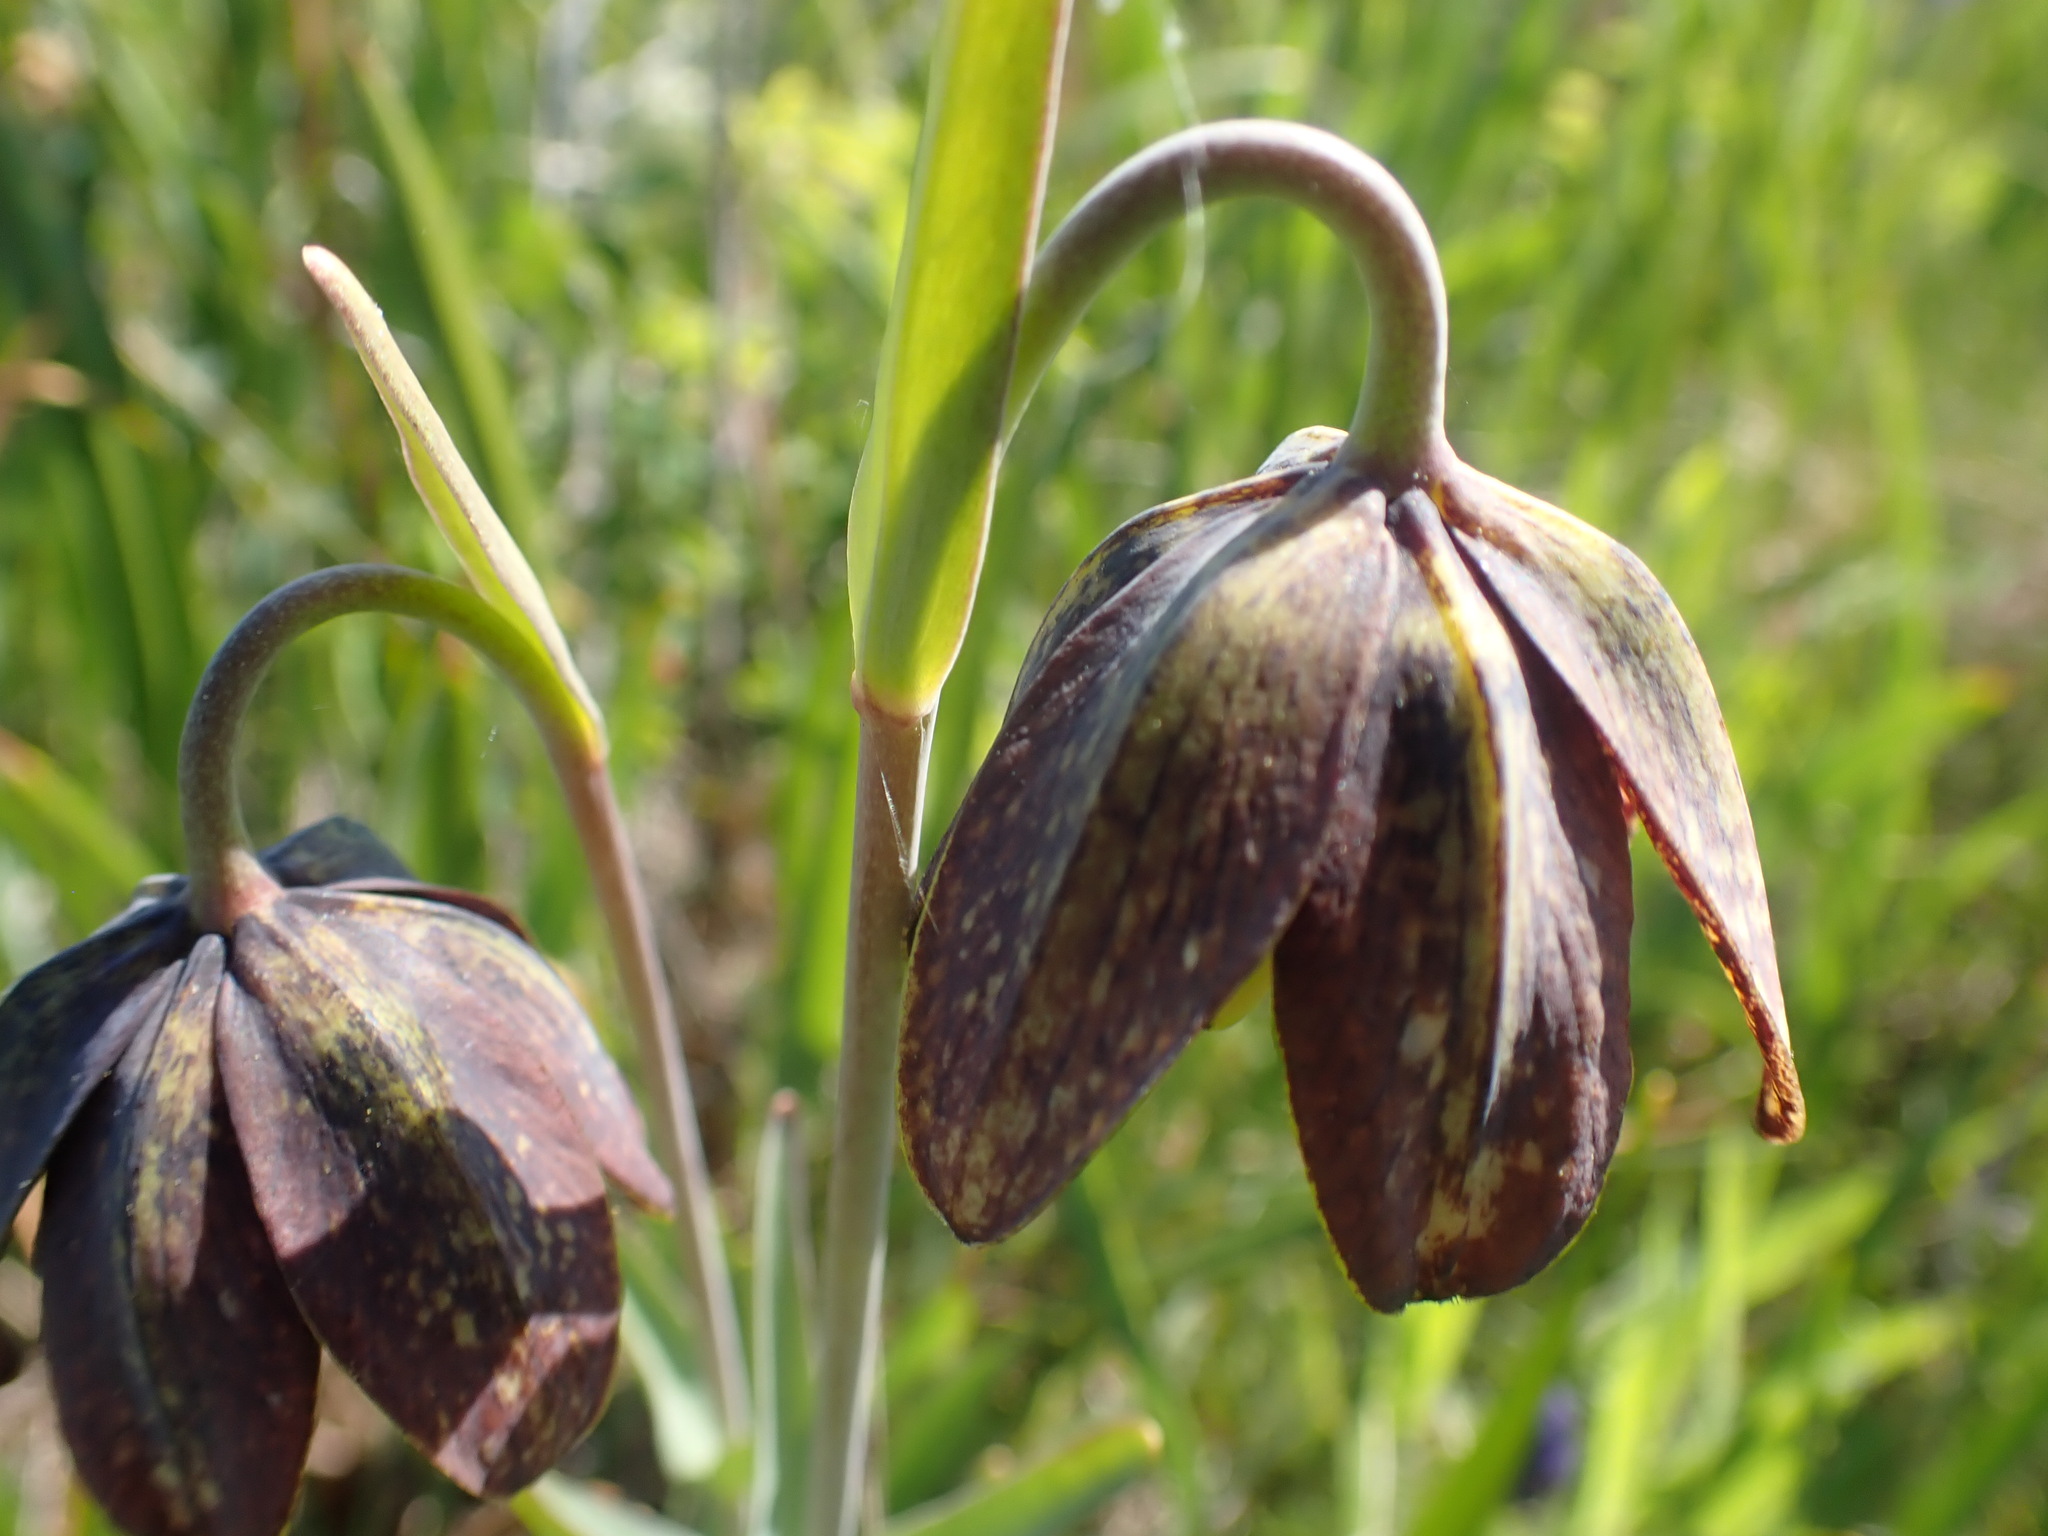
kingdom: Plantae
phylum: Tracheophyta
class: Liliopsida
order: Liliales
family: Liliaceae
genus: Fritillaria
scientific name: Fritillaria affinis
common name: Ojai fritillary
